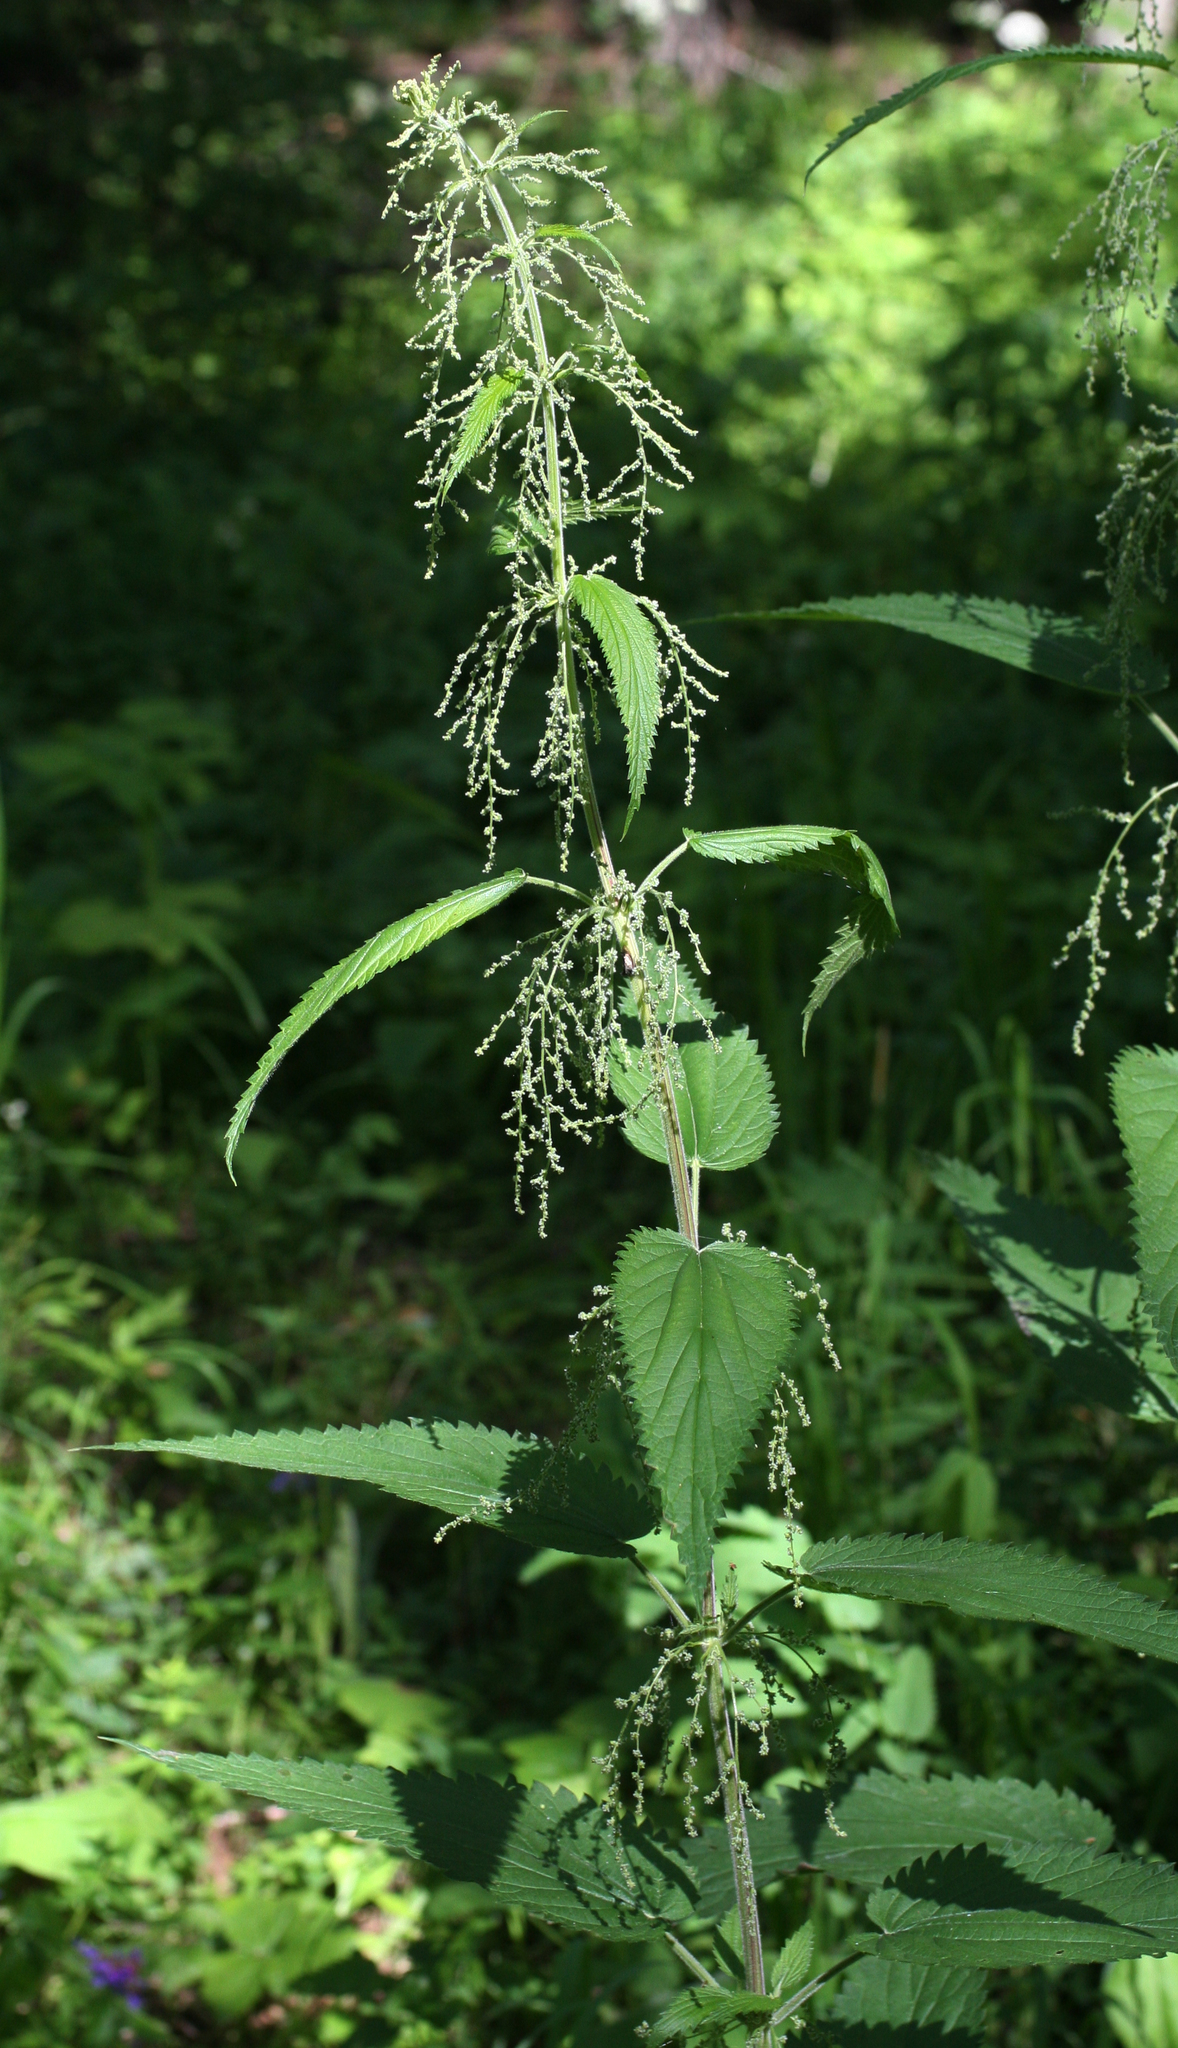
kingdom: Plantae
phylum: Tracheophyta
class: Magnoliopsida
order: Rosales
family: Urticaceae
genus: Urtica
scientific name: Urtica galeopsifolia
